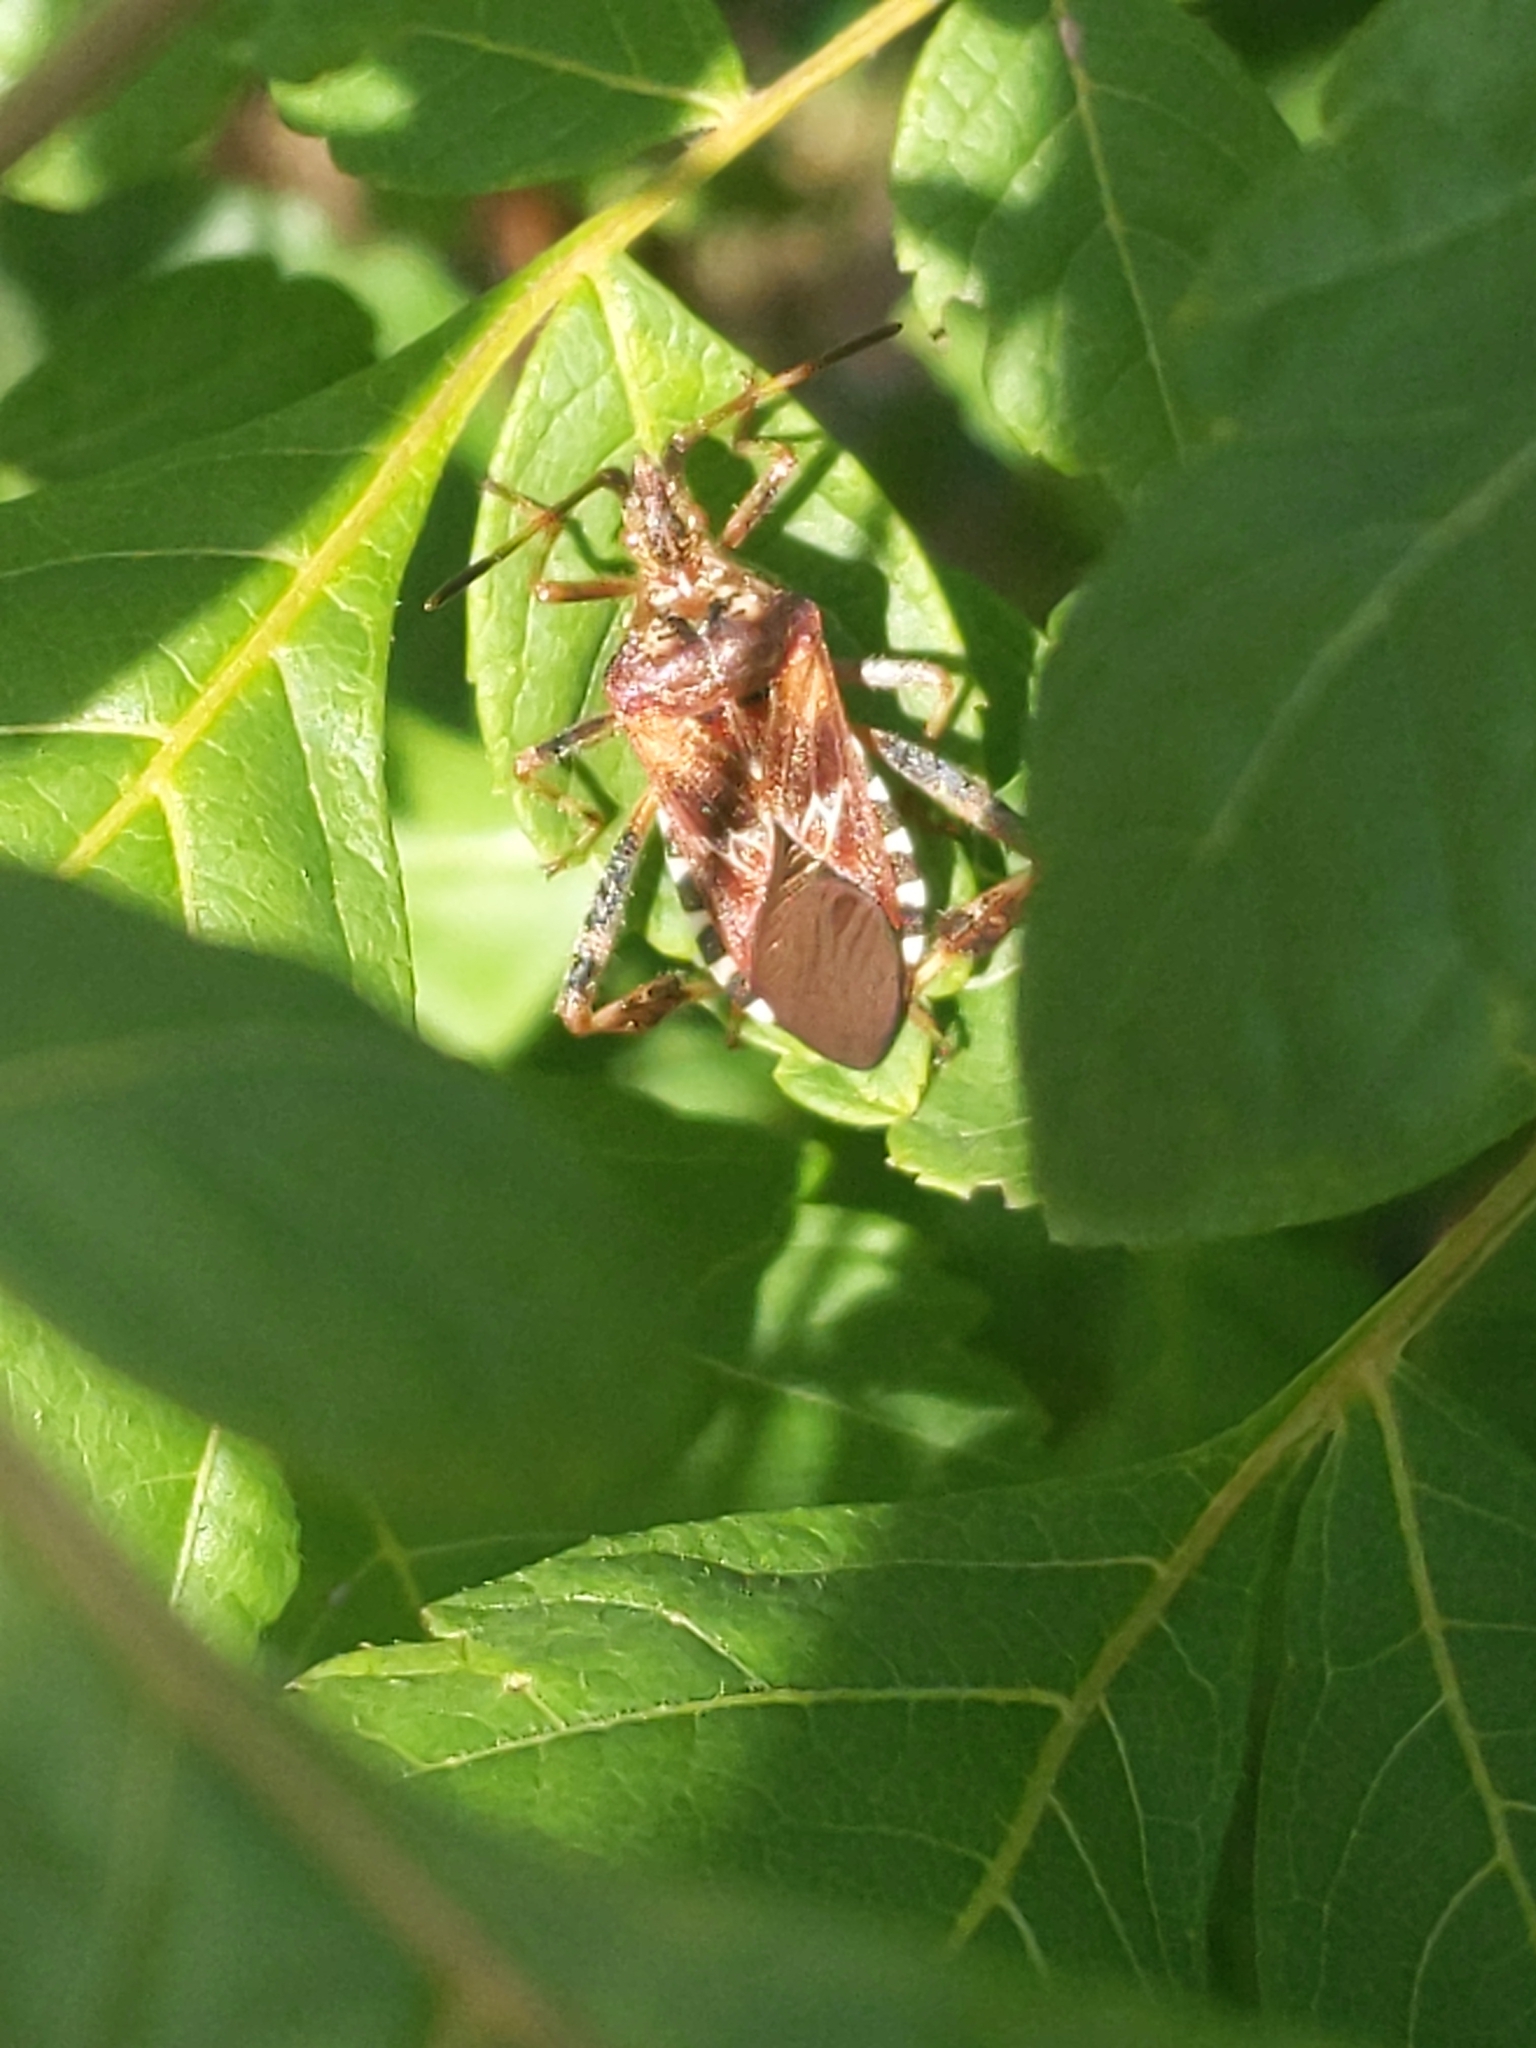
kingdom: Animalia
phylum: Arthropoda
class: Insecta
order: Hemiptera
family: Coreidae
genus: Leptoglossus
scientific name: Leptoglossus occidentalis
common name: Western conifer-seed bug
